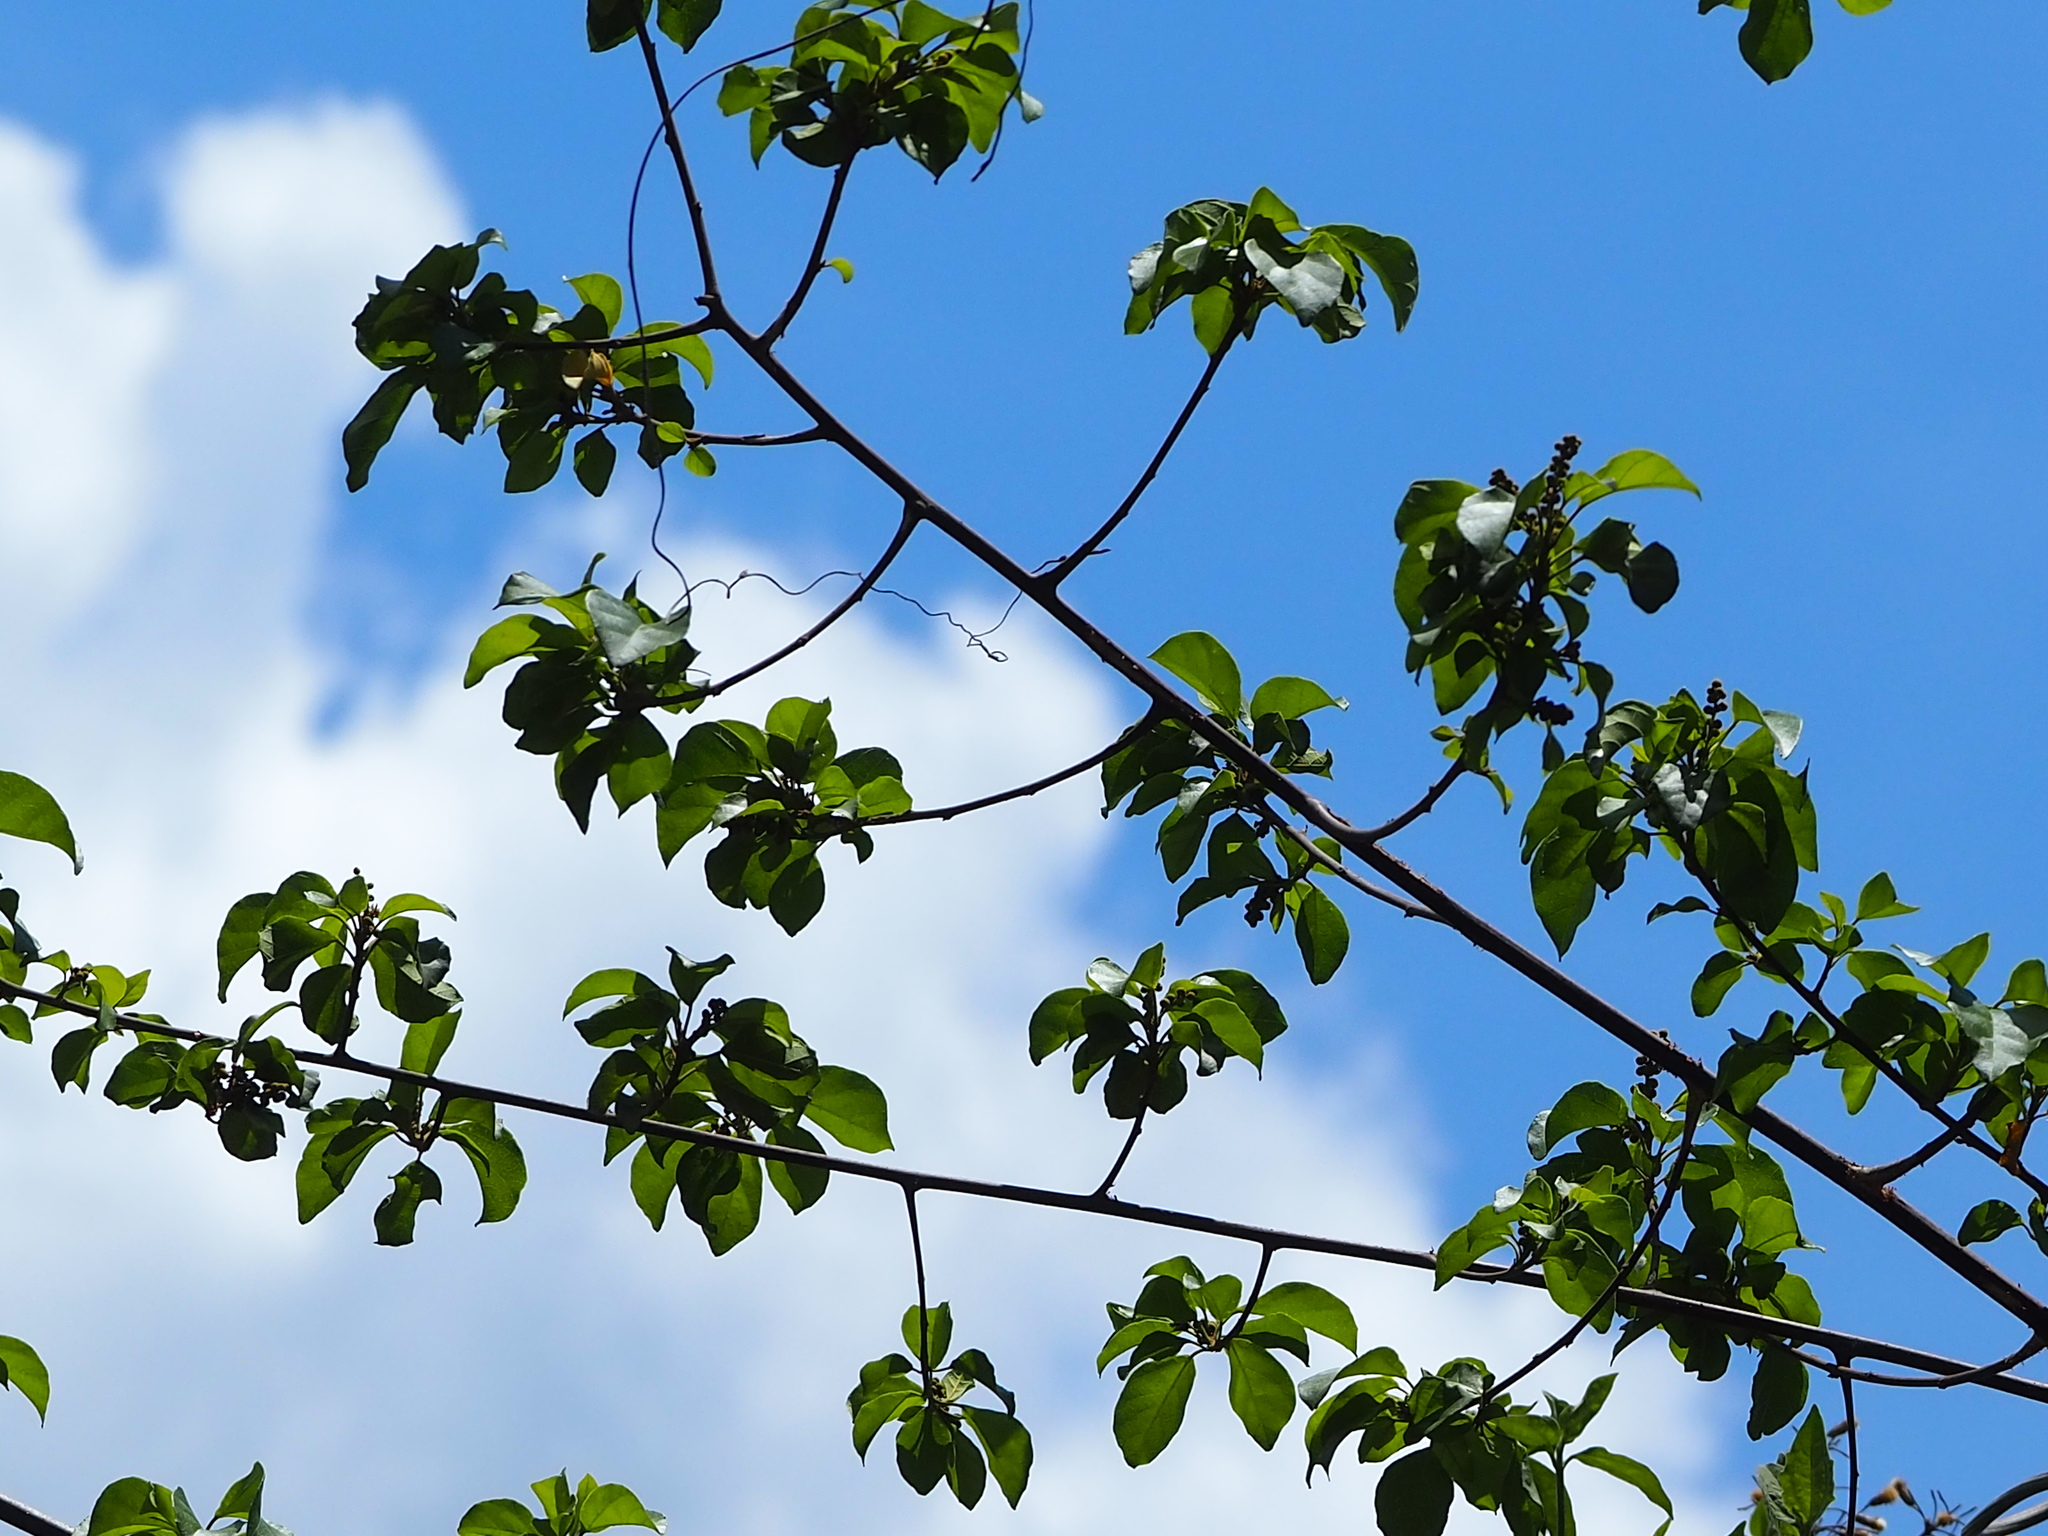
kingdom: Plantae
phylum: Tracheophyta
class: Magnoliopsida
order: Malpighiales
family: Euphorbiaceae
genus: Mallotus
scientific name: Mallotus repandus
